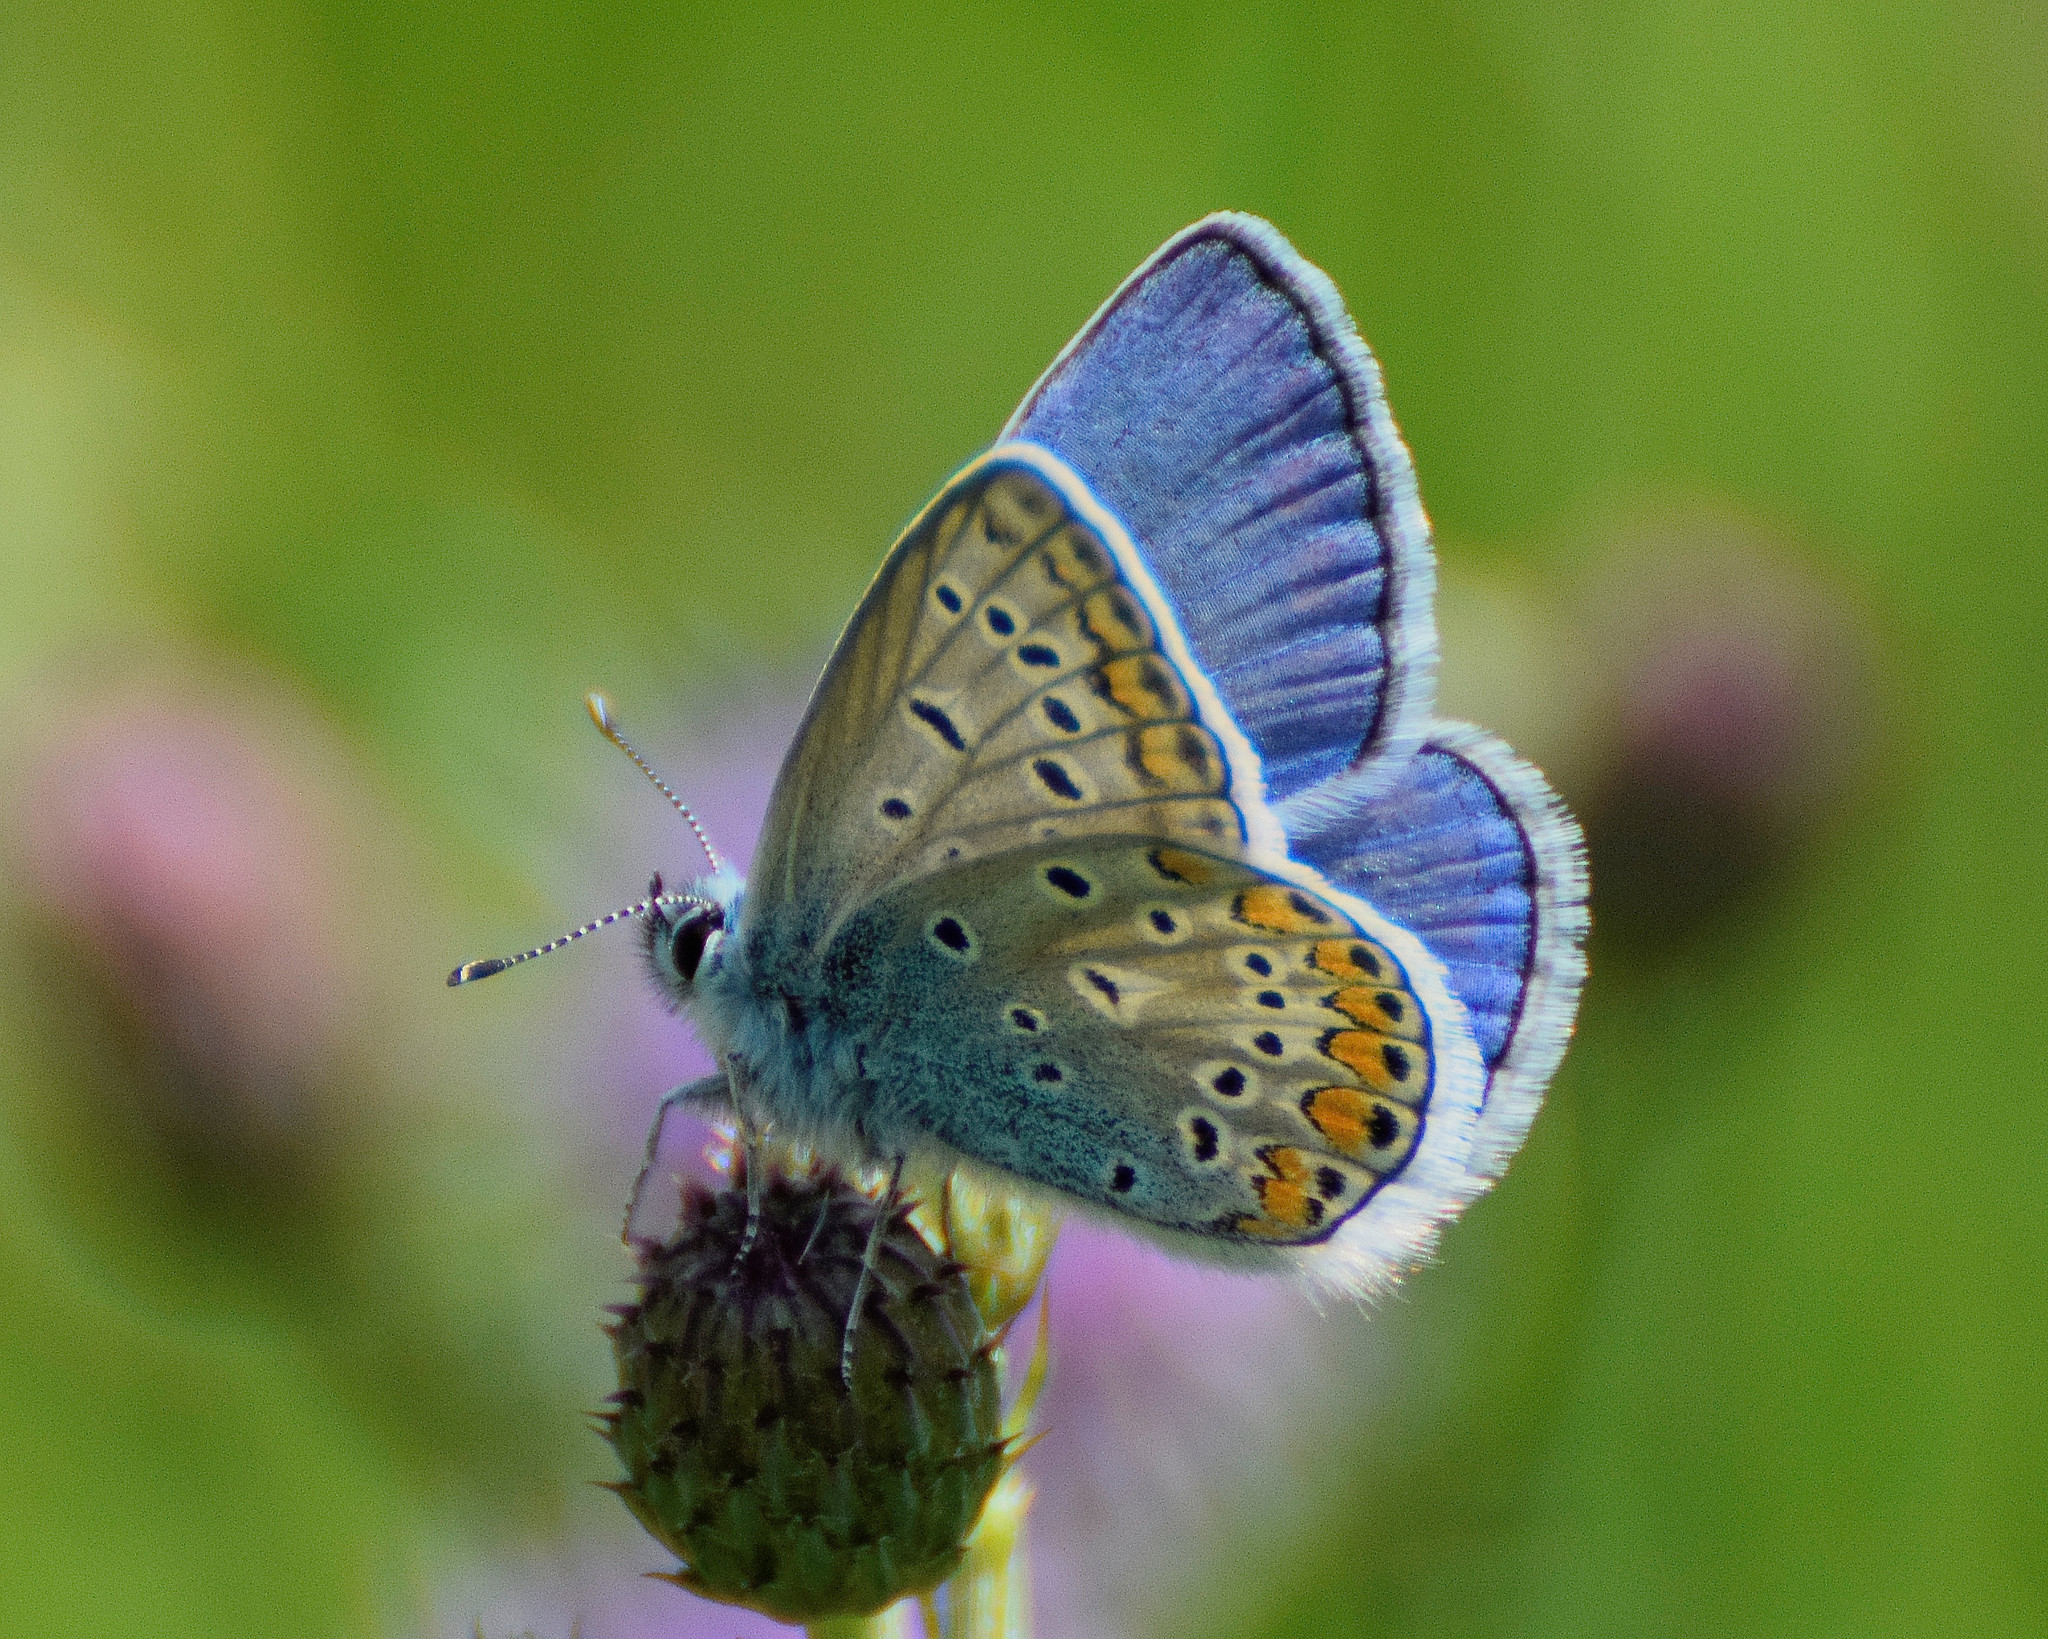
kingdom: Animalia
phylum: Arthropoda
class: Insecta
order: Lepidoptera
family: Lycaenidae
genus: Polyommatus
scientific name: Polyommatus icarus
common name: Common blue
